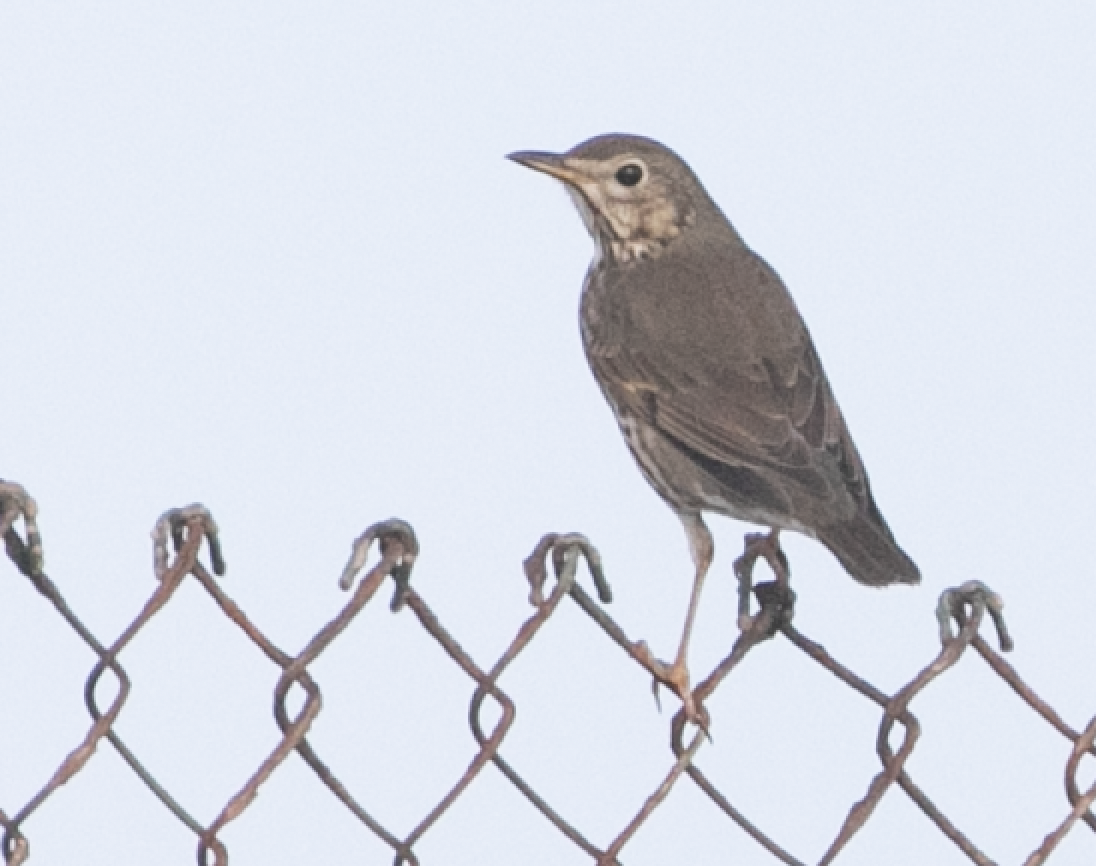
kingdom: Animalia
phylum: Chordata
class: Aves
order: Passeriformes
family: Turdidae
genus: Turdus
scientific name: Turdus philomelos
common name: Song thrush
